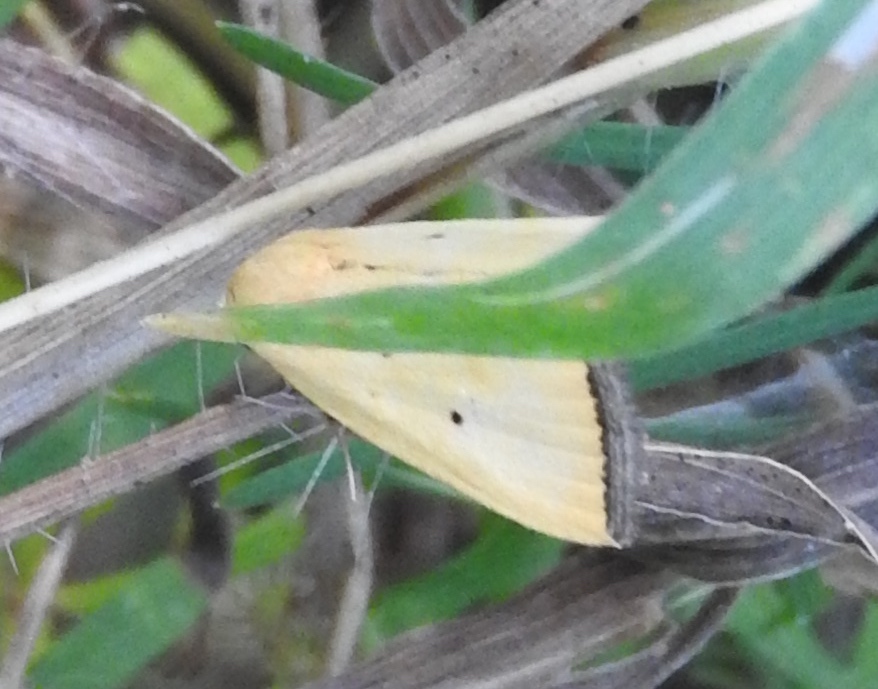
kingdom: Animalia
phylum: Arthropoda
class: Insecta
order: Lepidoptera
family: Noctuidae
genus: Marimatha
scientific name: Marimatha nigrofimbria
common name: Black-bordered lemon moth
